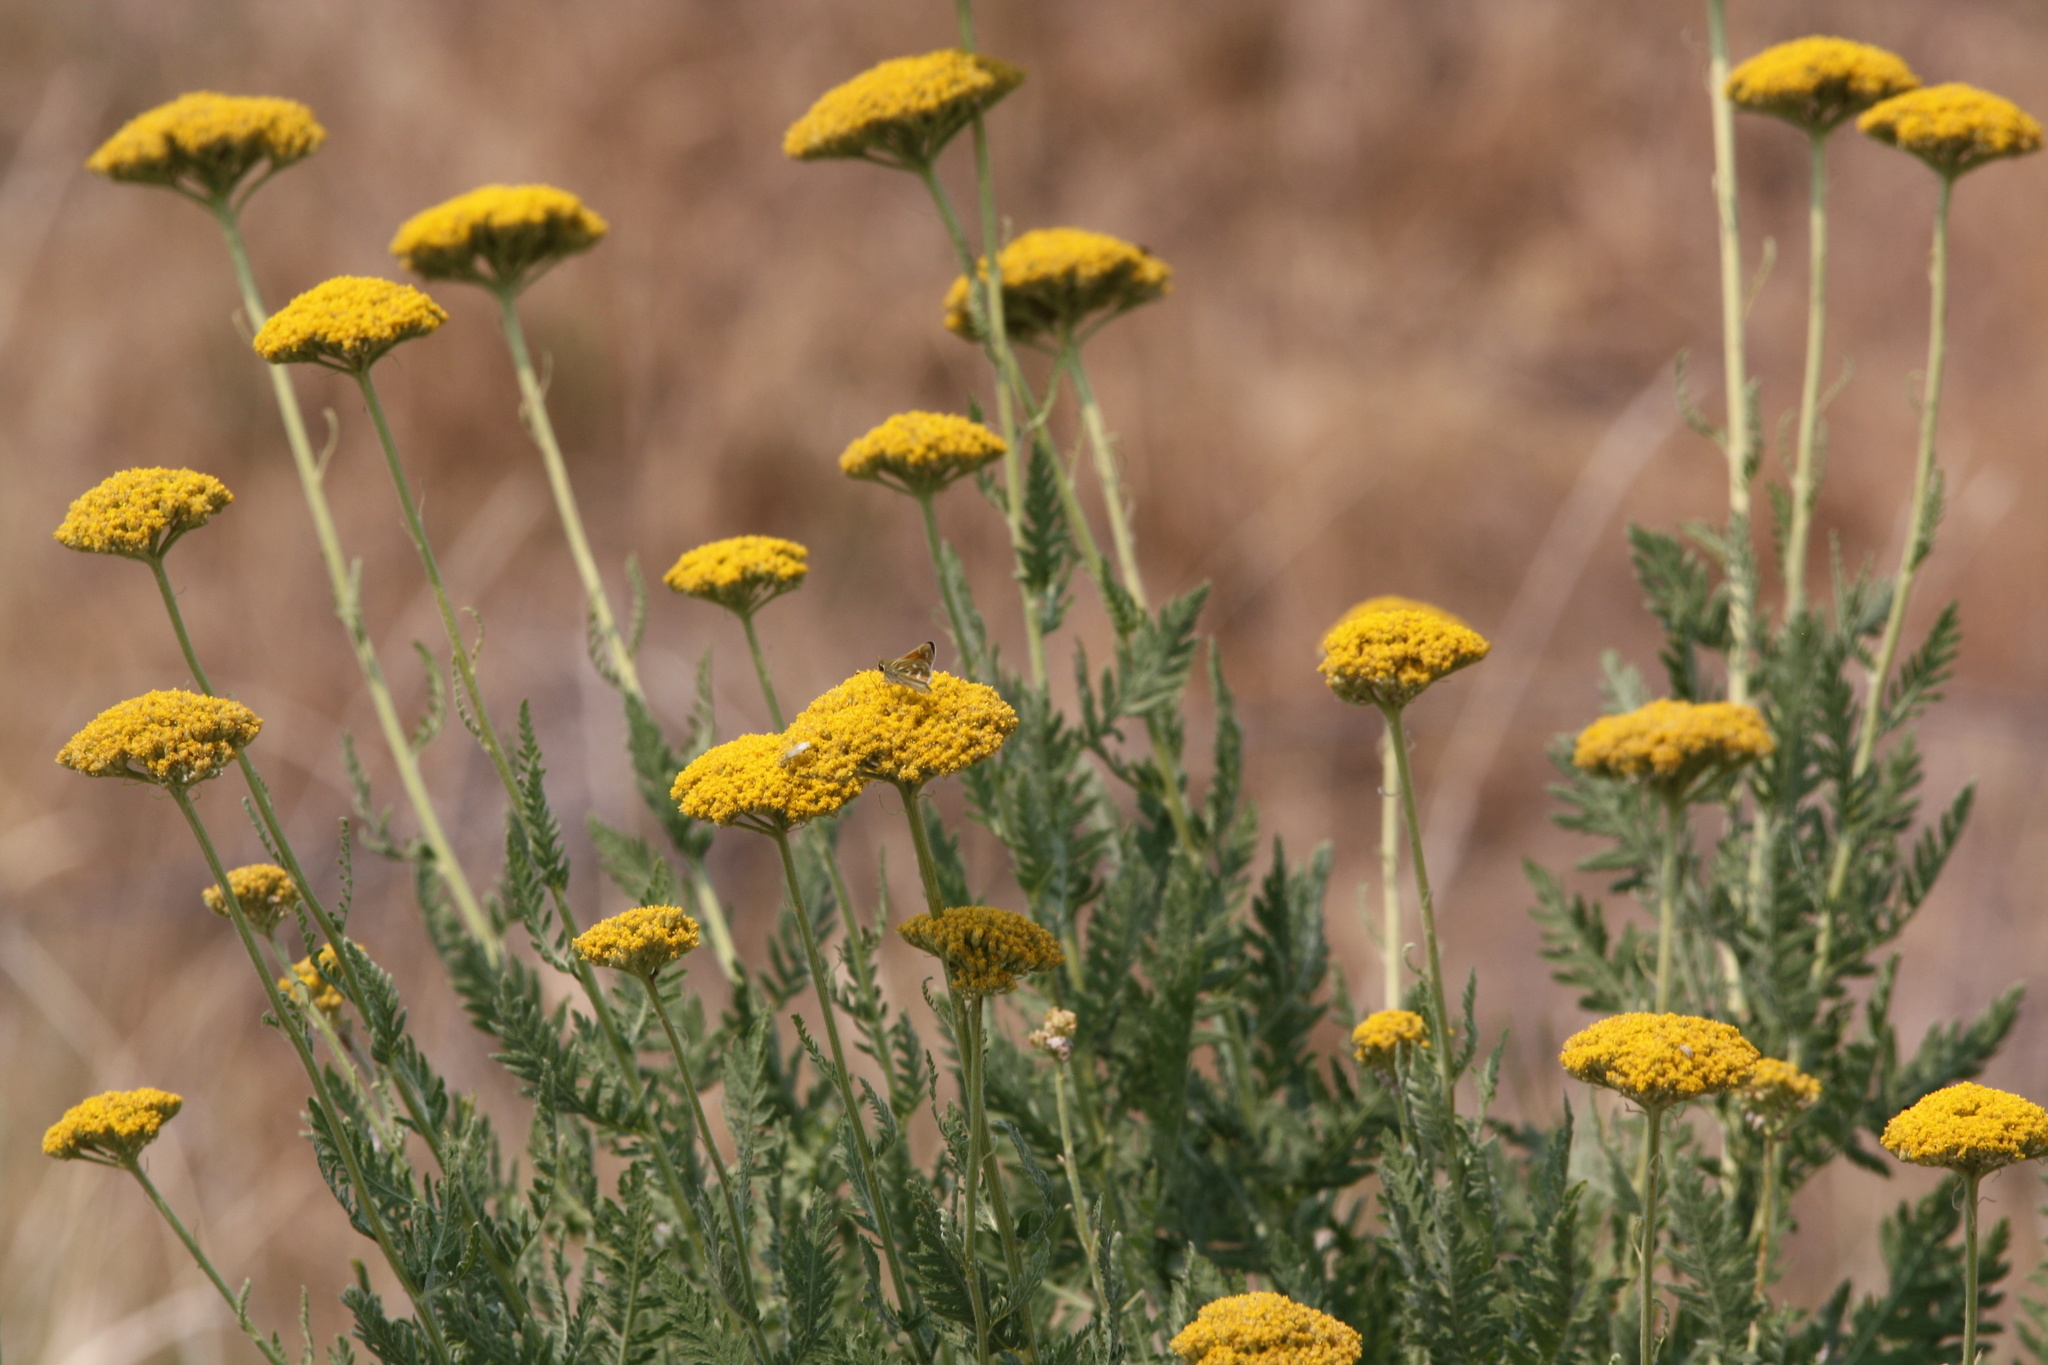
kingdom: Plantae
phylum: Tracheophyta
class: Magnoliopsida
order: Asterales
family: Asteraceae
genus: Achillea
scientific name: Achillea filipendulina
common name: Fernleaf yarrow
